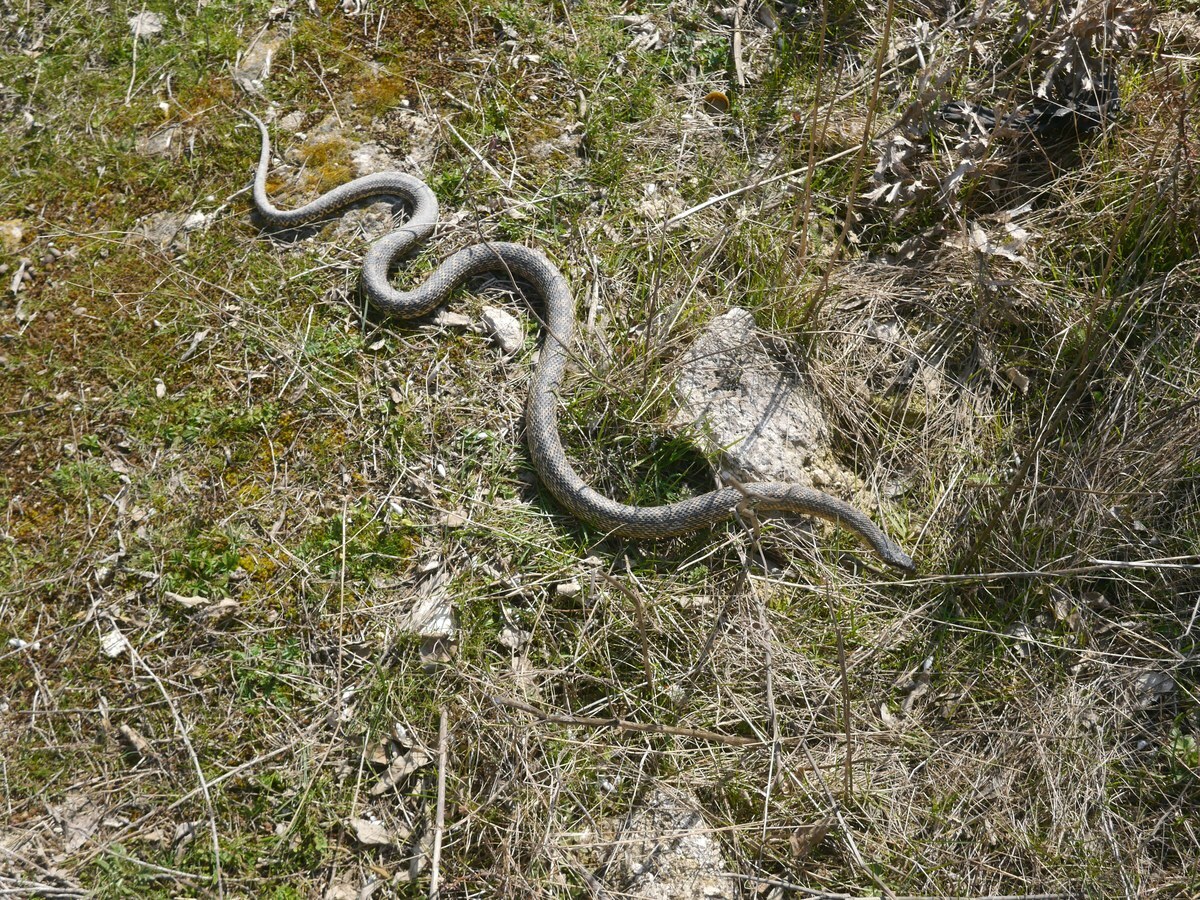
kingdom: Animalia
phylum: Chordata
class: Squamata
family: Colubridae
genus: Elaphe
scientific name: Elaphe sauromates
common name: Eastern four-lined ratsnake
